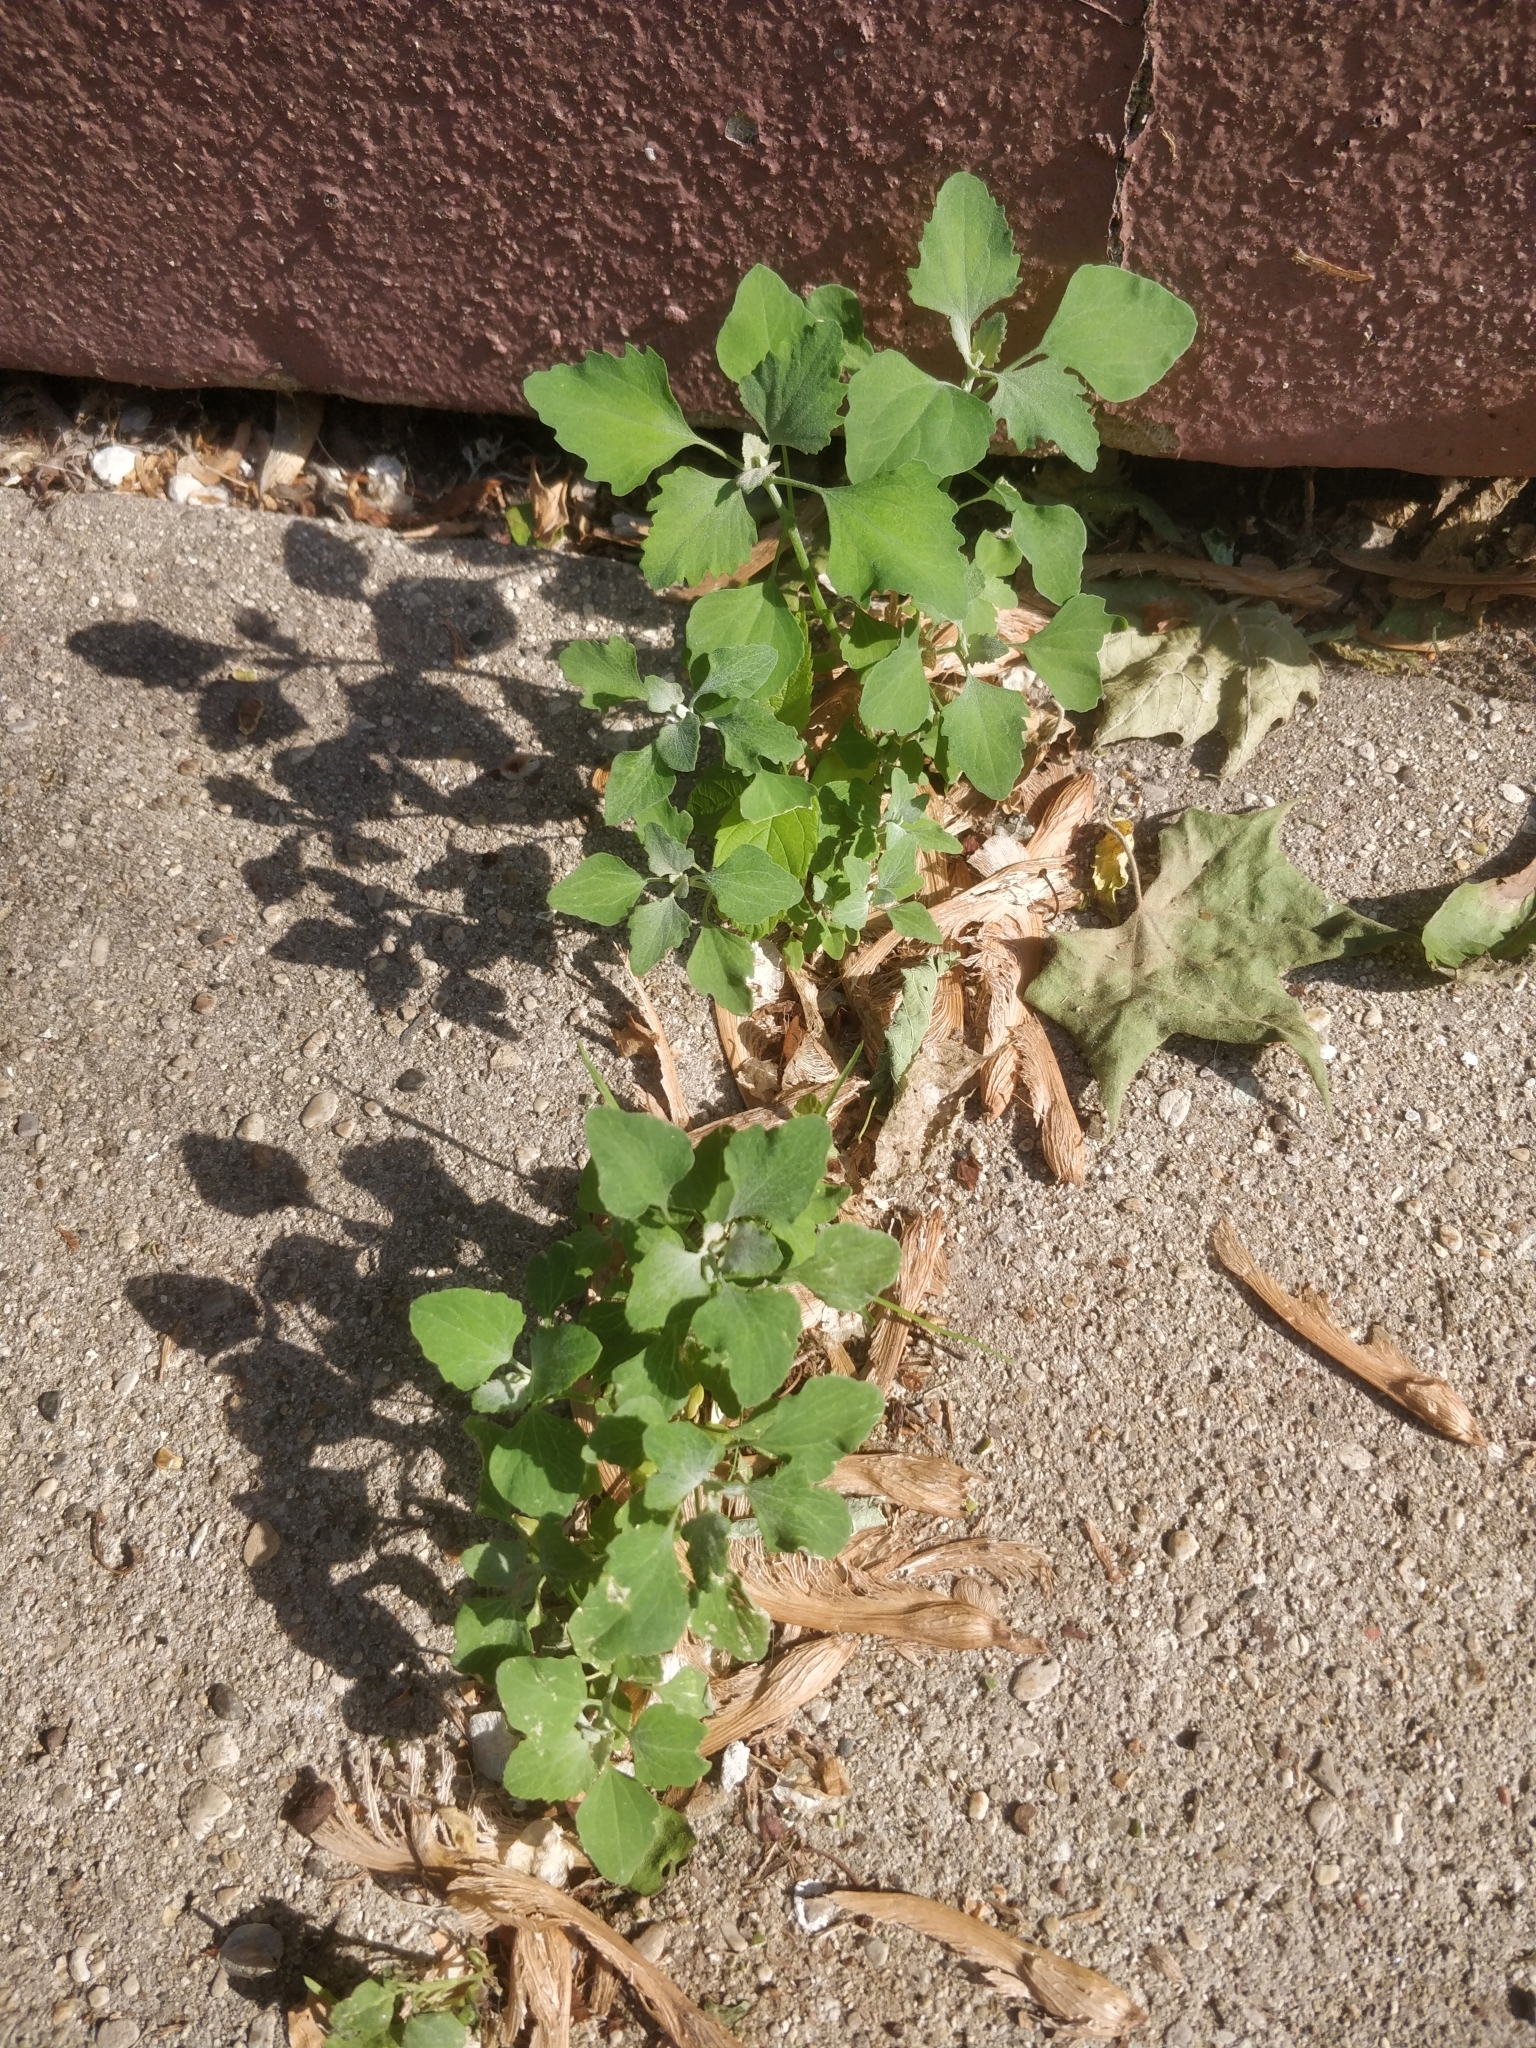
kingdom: Plantae
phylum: Tracheophyta
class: Magnoliopsida
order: Caryophyllales
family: Amaranthaceae
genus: Chenopodium
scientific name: Chenopodium album
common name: Fat-hen
